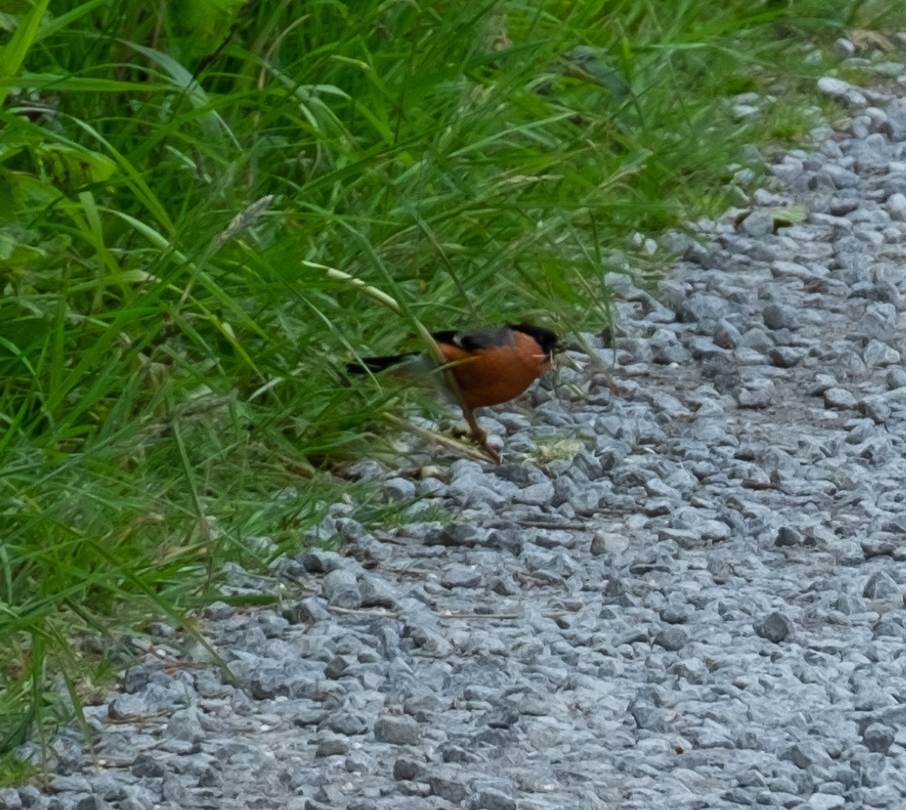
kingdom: Animalia
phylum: Chordata
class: Aves
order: Passeriformes
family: Fringillidae
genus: Pyrrhula
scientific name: Pyrrhula pyrrhula
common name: Eurasian bullfinch
